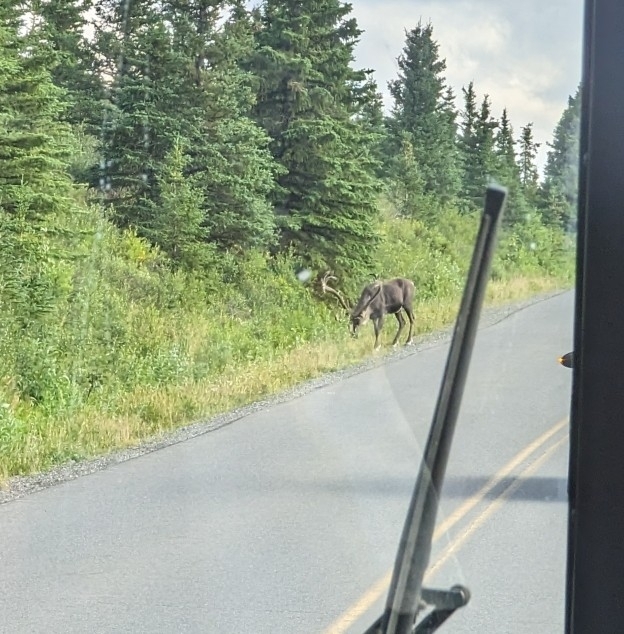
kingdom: Animalia
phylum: Chordata
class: Mammalia
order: Artiodactyla
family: Cervidae
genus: Rangifer
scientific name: Rangifer tarandus
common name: Reindeer
